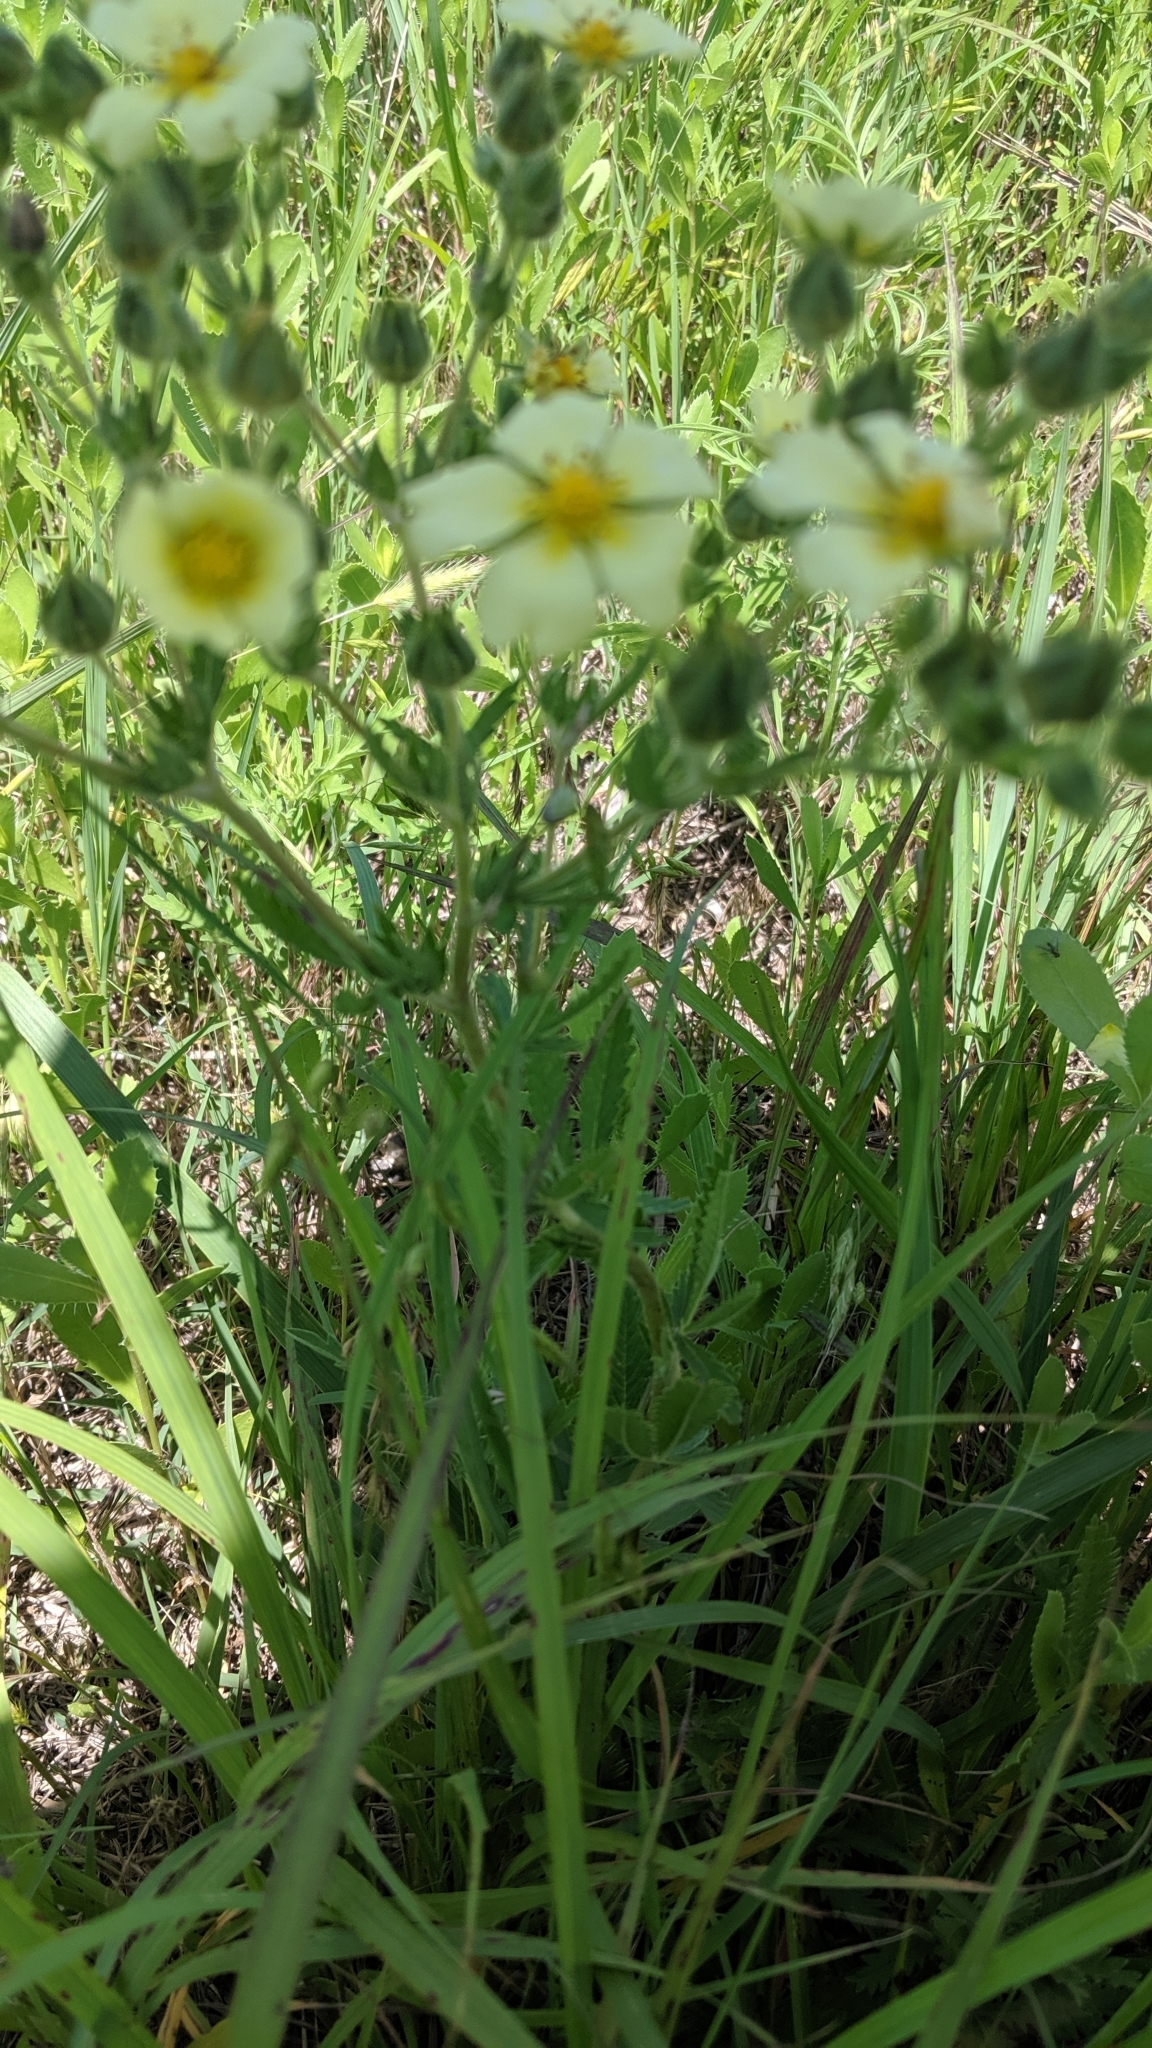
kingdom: Plantae
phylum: Tracheophyta
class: Magnoliopsida
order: Rosales
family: Rosaceae
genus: Potentilla
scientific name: Potentilla recta
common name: Sulphur cinquefoil
